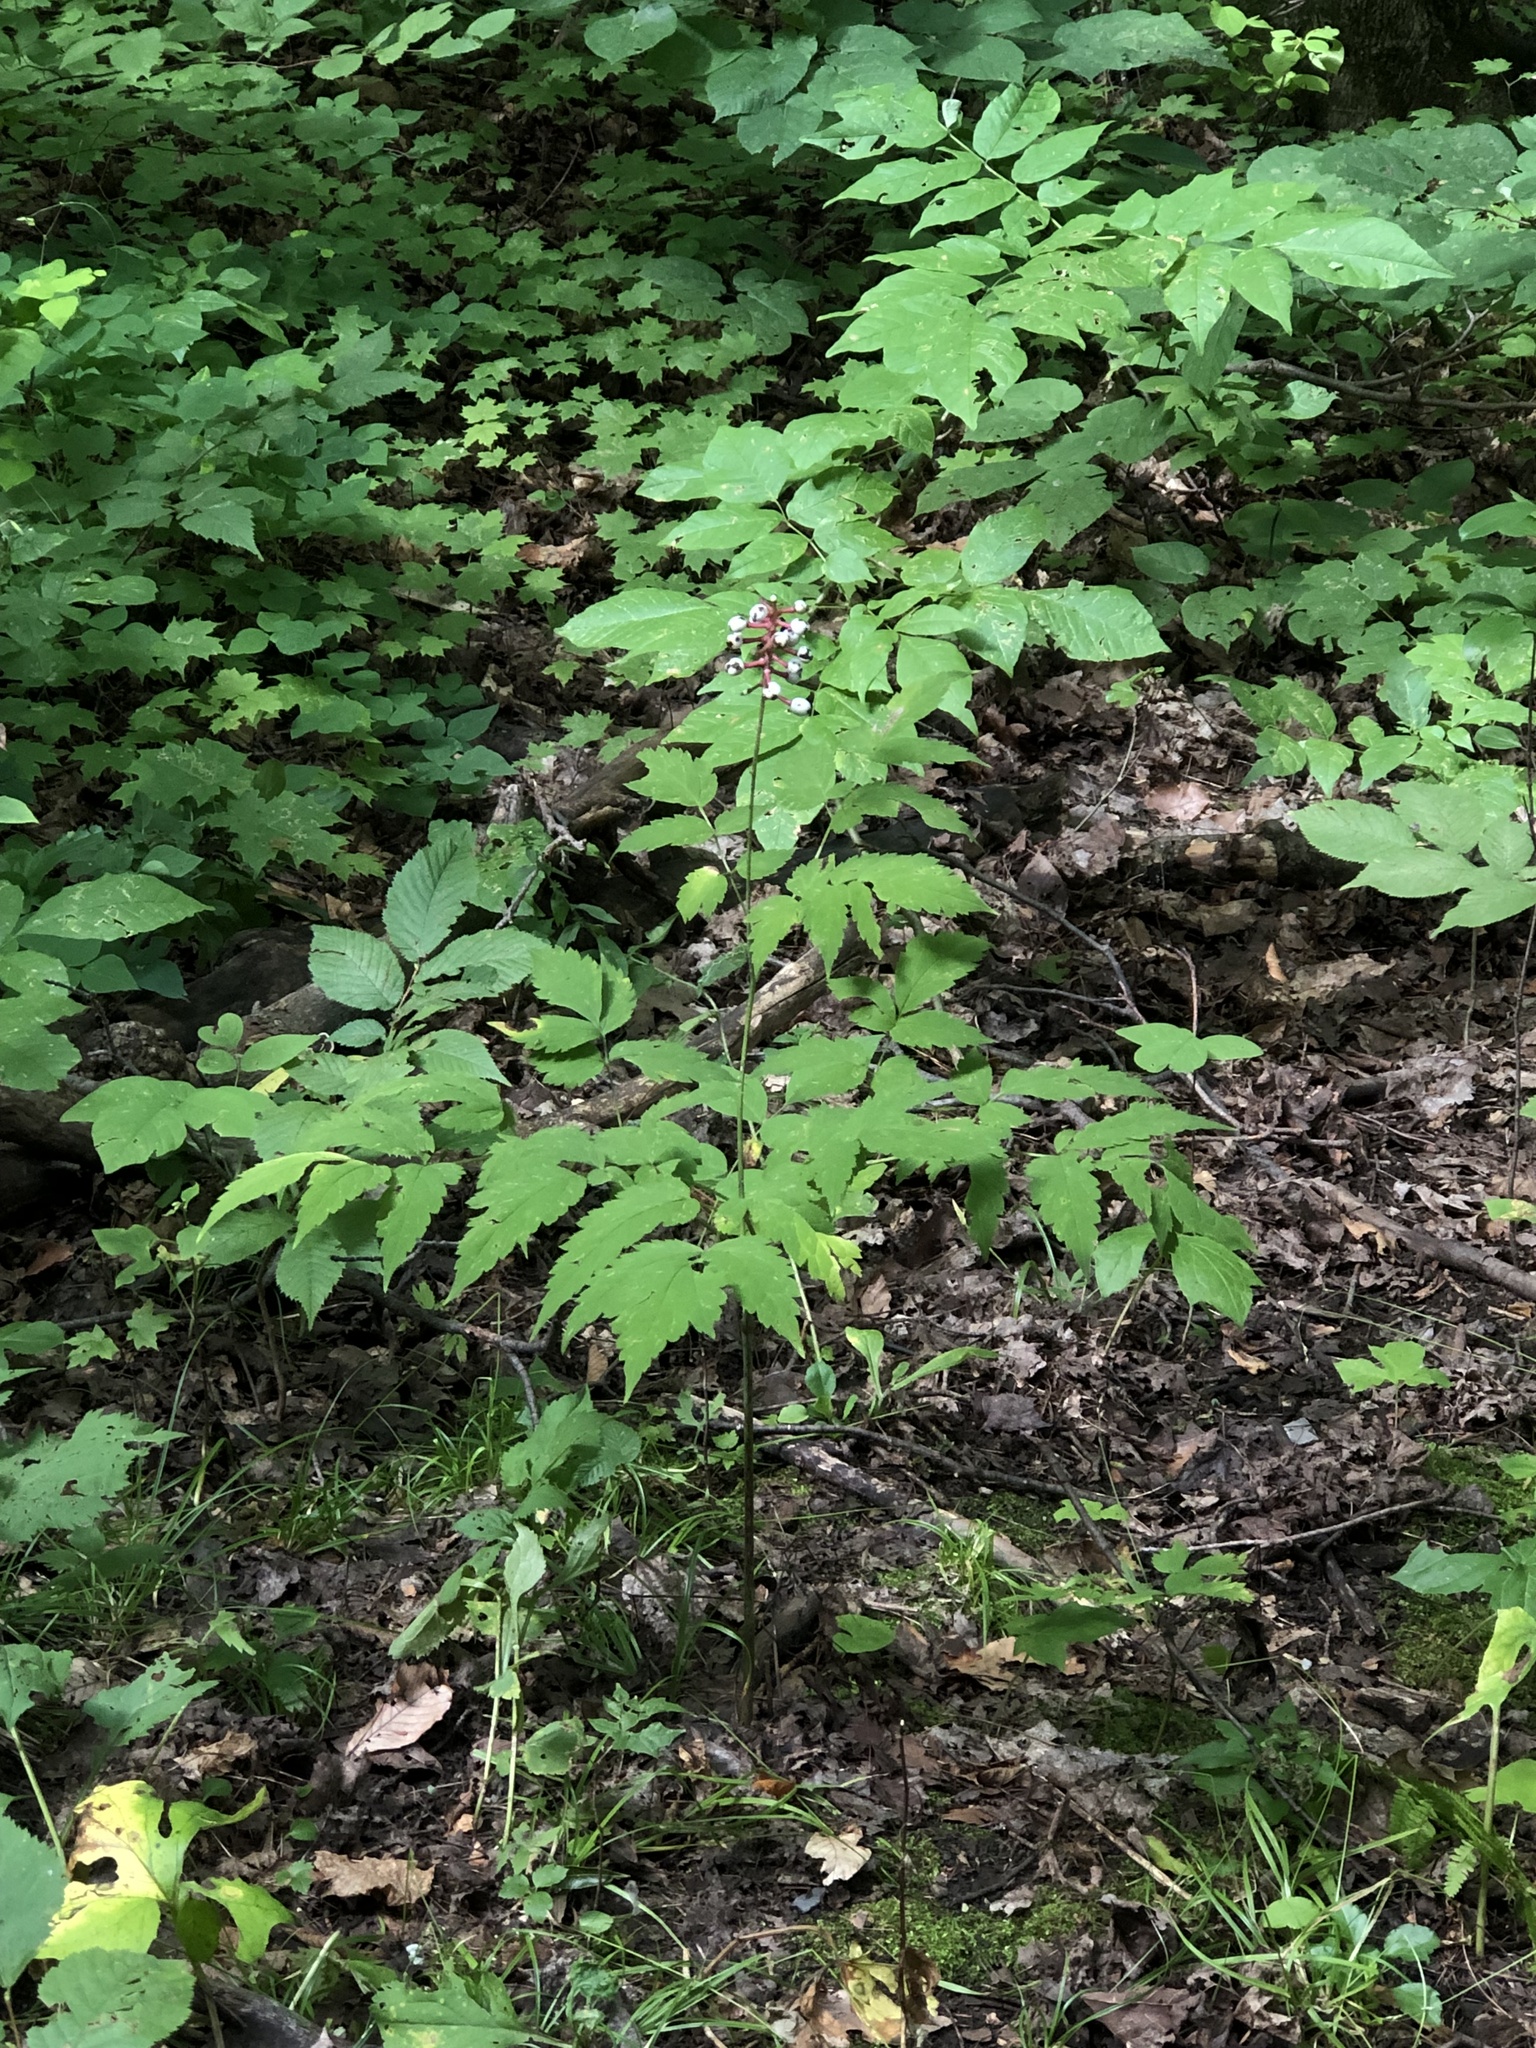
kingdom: Plantae
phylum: Tracheophyta
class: Magnoliopsida
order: Ranunculales
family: Ranunculaceae
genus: Actaea
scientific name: Actaea pachypoda
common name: Doll's-eyes
